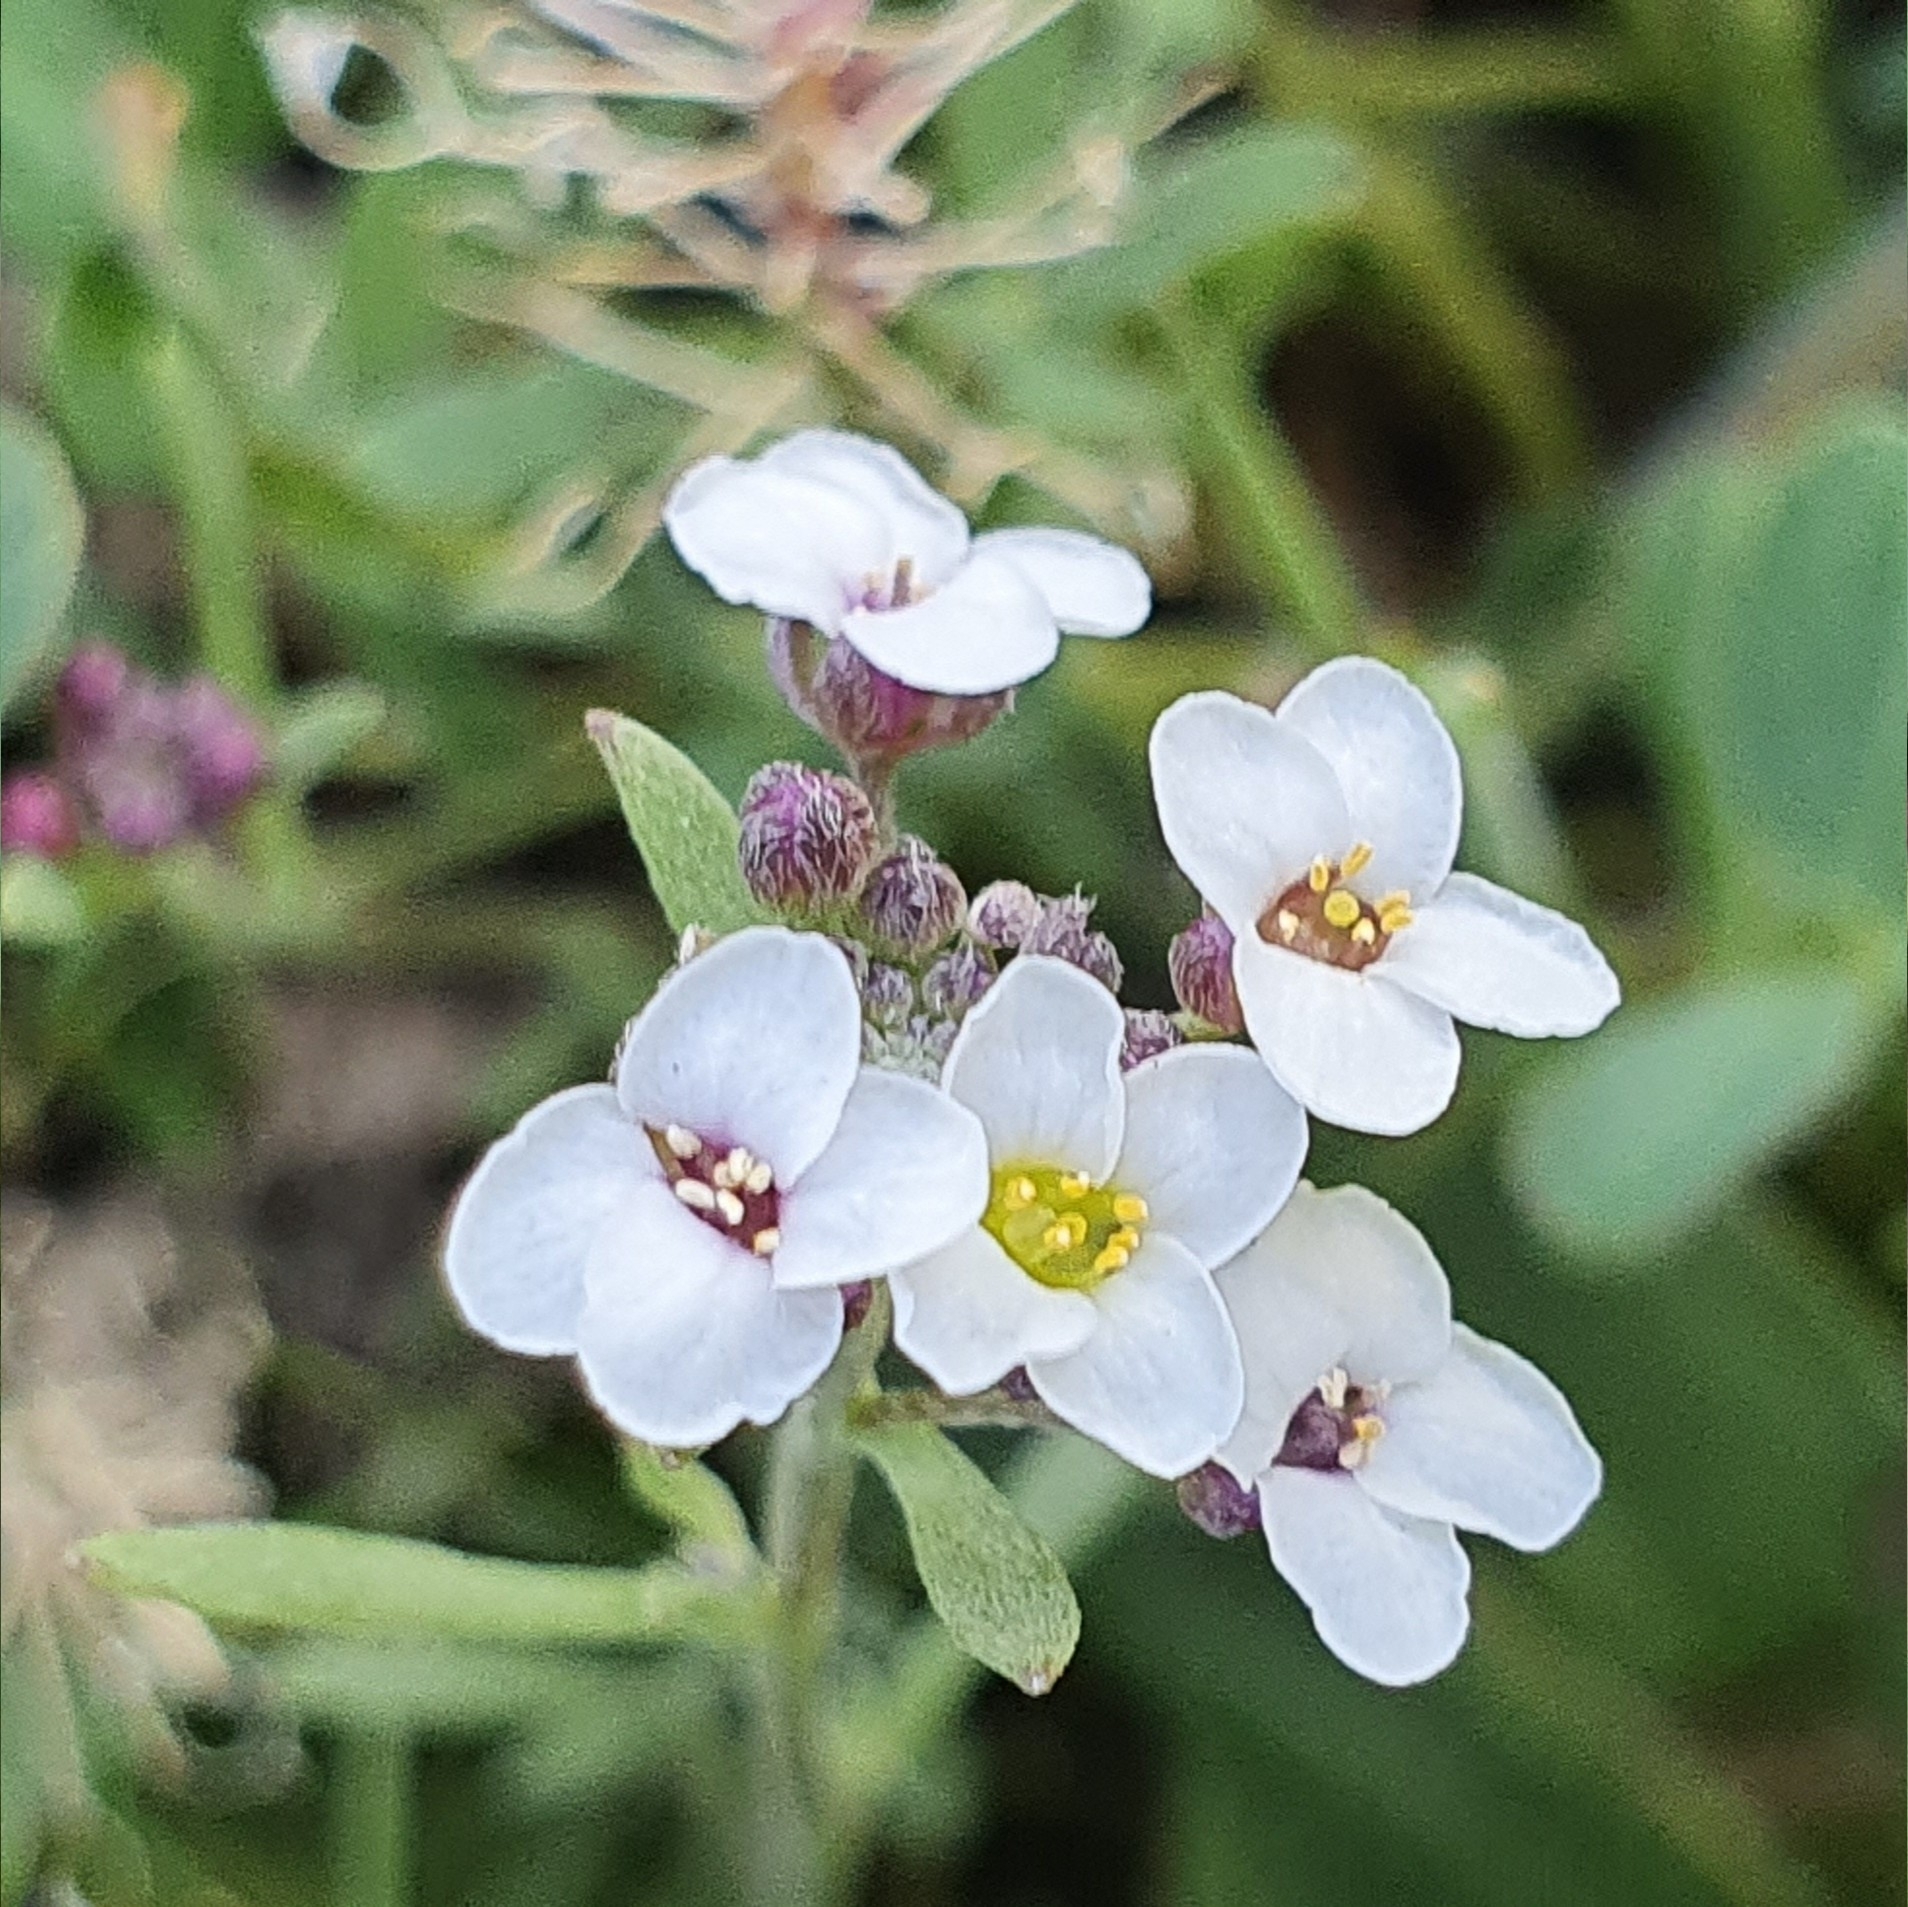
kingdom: Plantae
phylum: Tracheophyta
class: Magnoliopsida
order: Brassicales
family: Brassicaceae
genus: Lobularia
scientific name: Lobularia maritima
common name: Sweet alison
